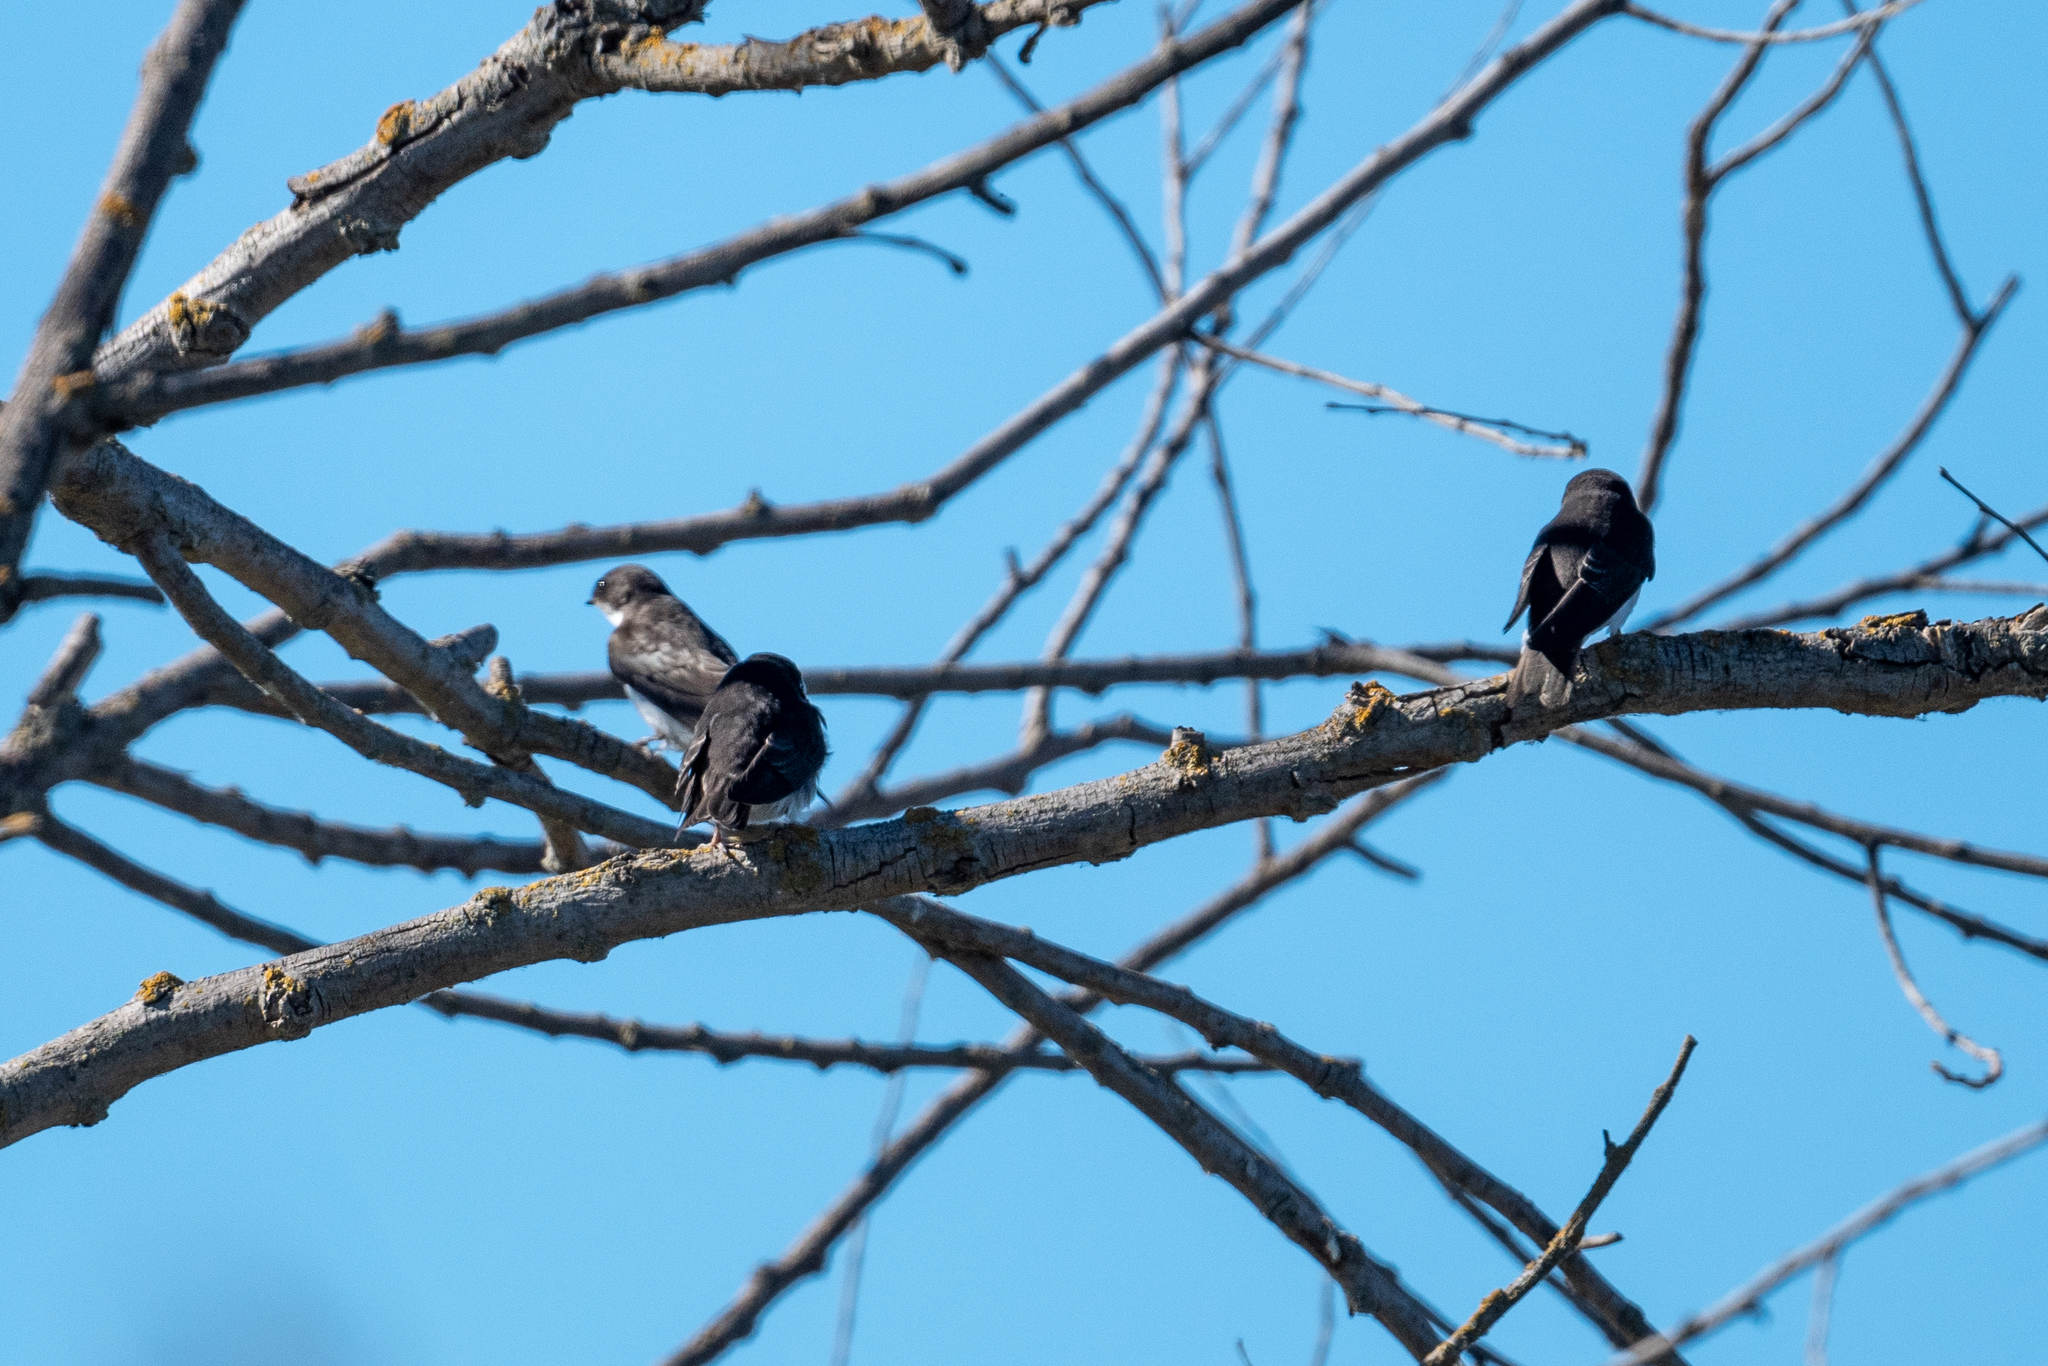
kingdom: Animalia
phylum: Chordata
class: Aves
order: Passeriformes
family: Hirundinidae
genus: Tachycineta
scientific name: Tachycineta bicolor
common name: Tree swallow
